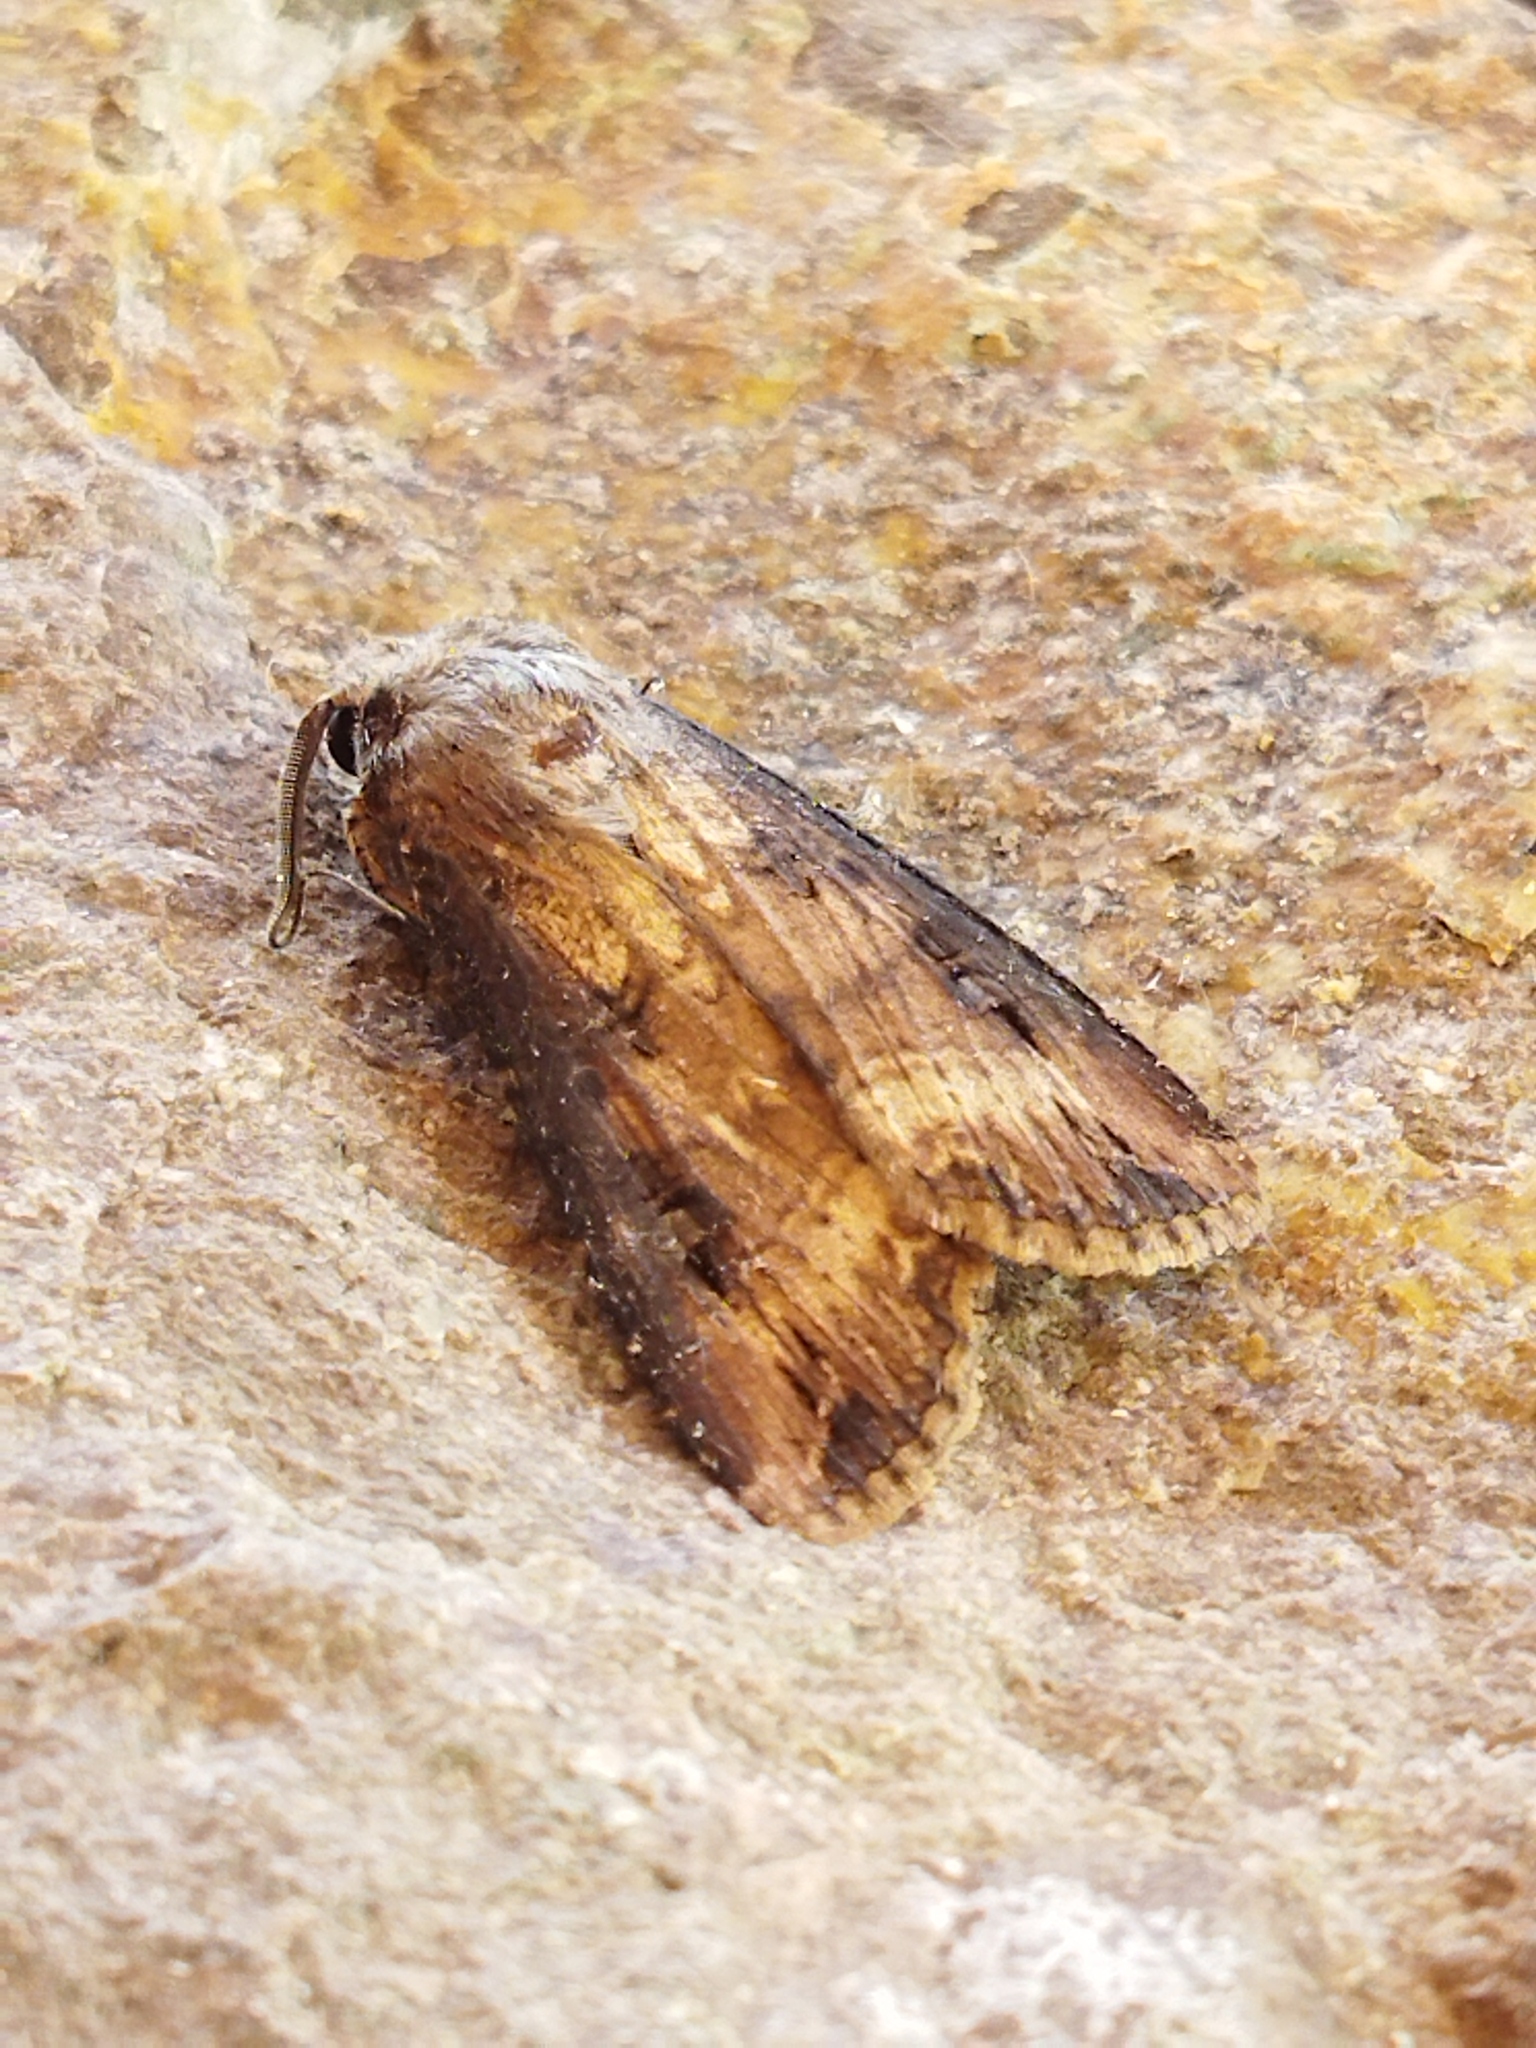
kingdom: Animalia
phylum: Arthropoda
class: Insecta
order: Lepidoptera
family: Noctuidae
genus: Agrotis
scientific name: Agrotis ipsilon
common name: Dark sword-grass
